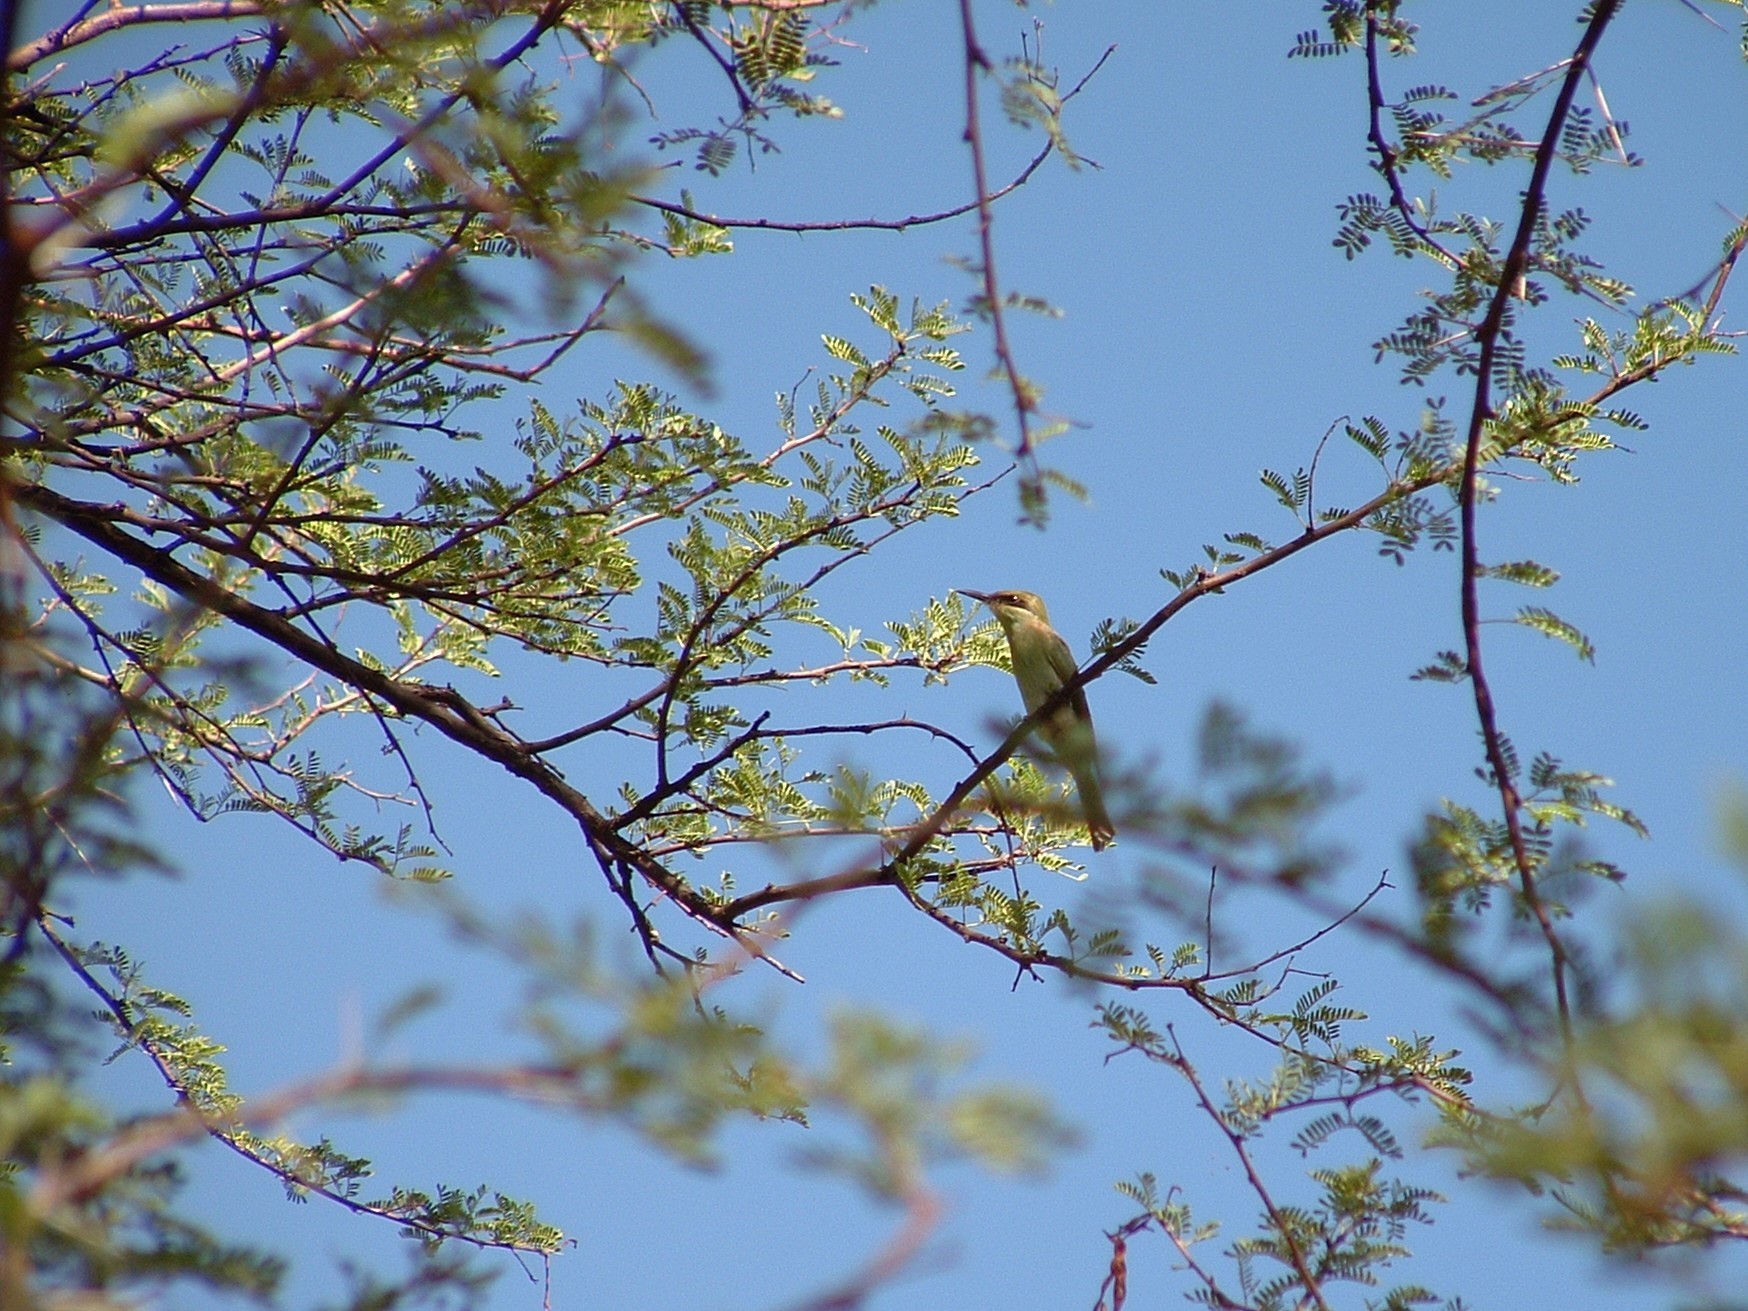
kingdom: Animalia
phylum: Chordata
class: Aves
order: Coraciiformes
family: Meropidae
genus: Merops
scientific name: Merops hirundineus
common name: Swallow-tailed bee-eater
